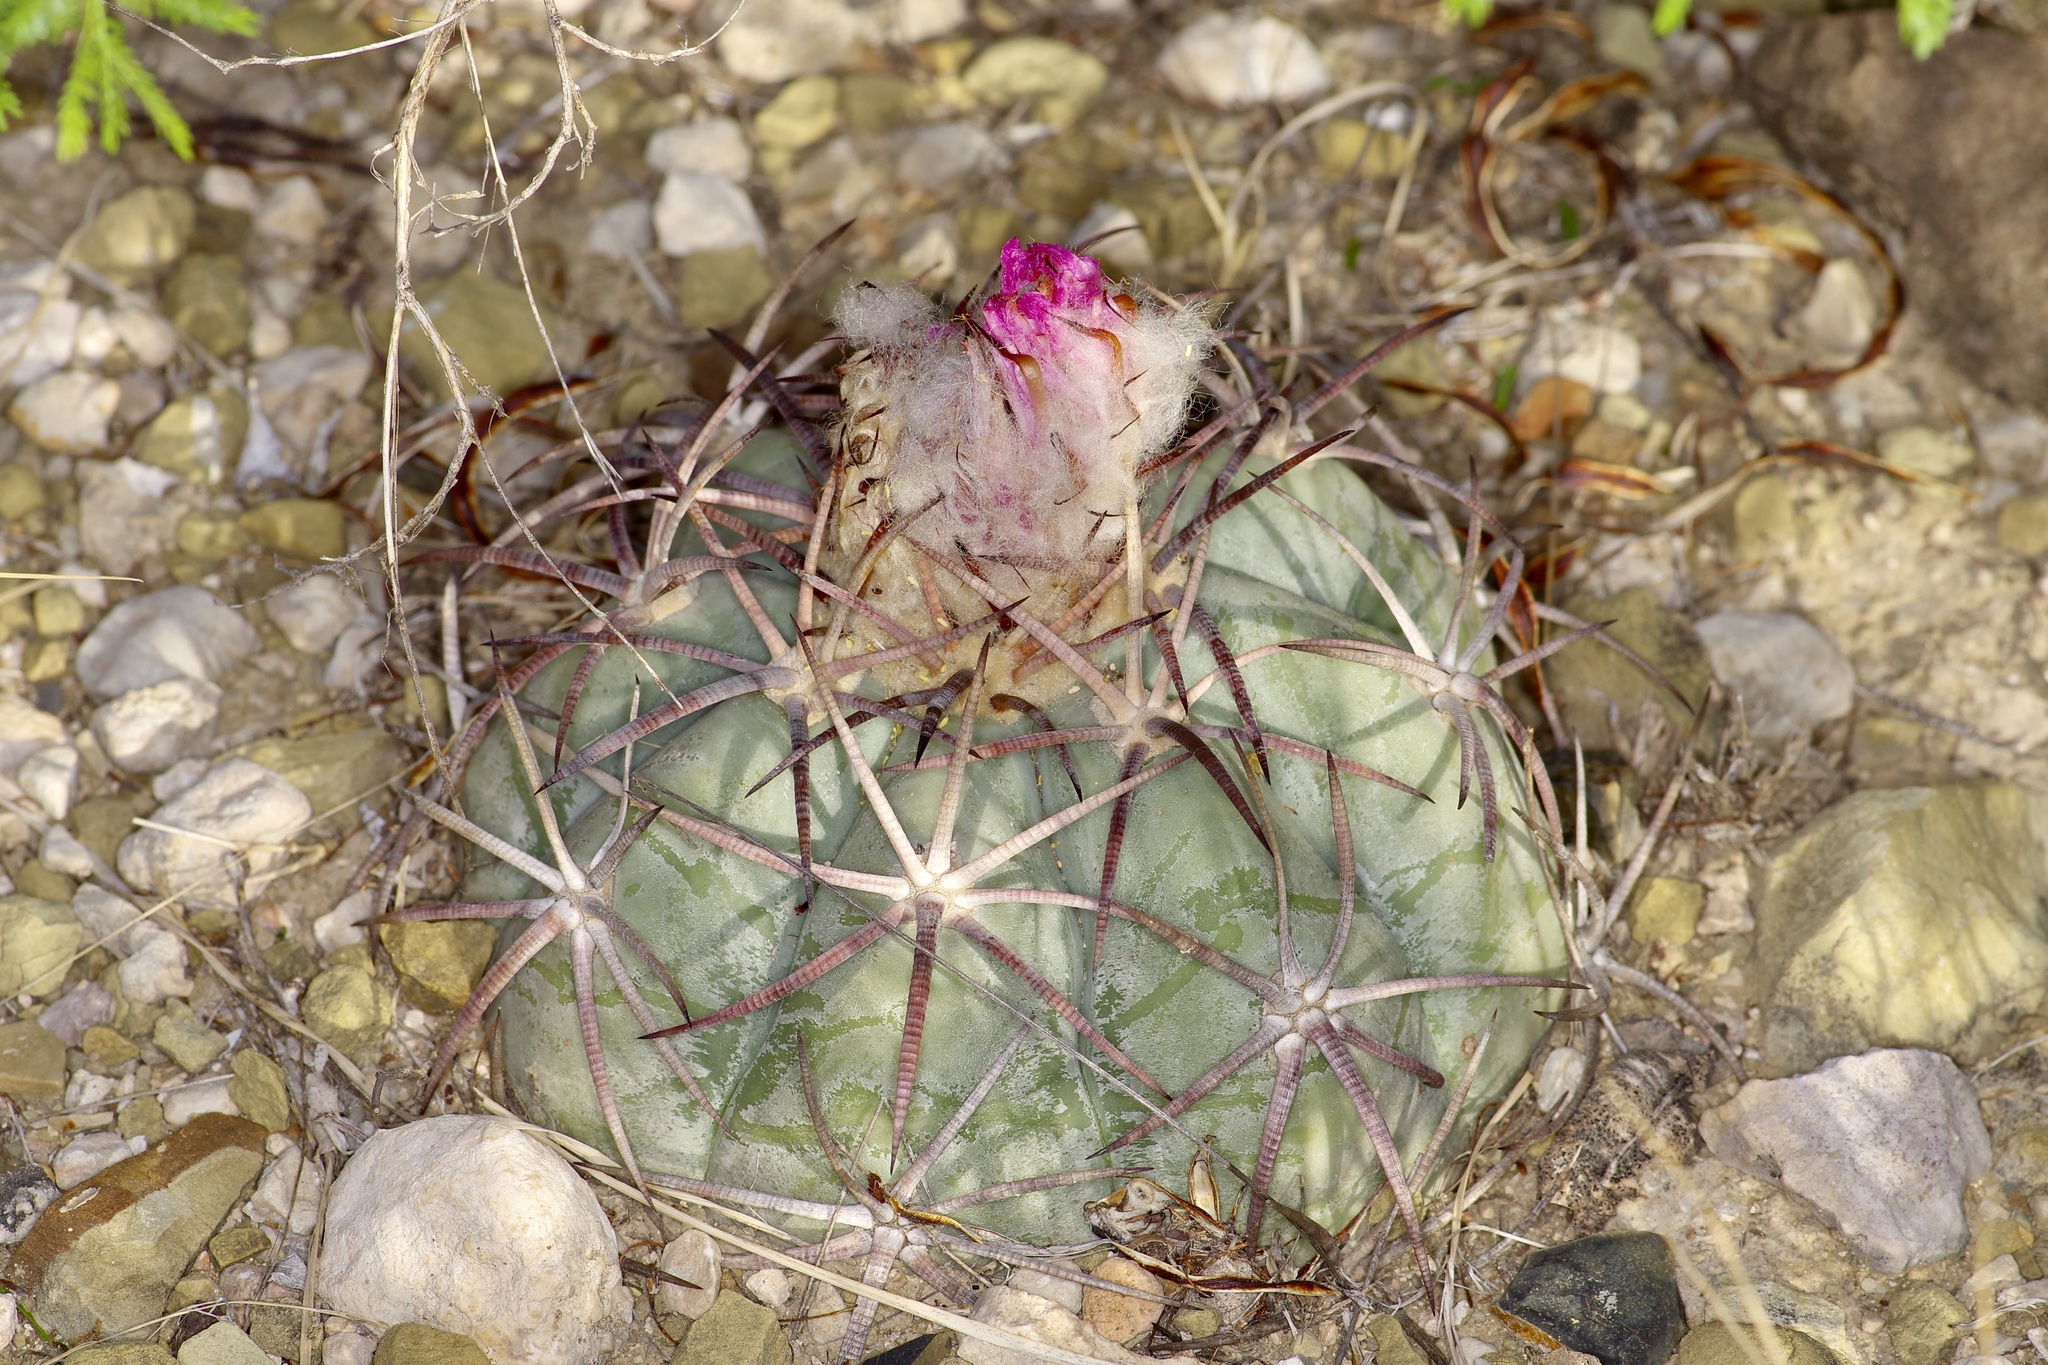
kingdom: Plantae
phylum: Tracheophyta
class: Magnoliopsida
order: Caryophyllales
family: Cactaceae
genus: Echinocactus
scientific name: Echinocactus horizonthalonius
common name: Devilshead
